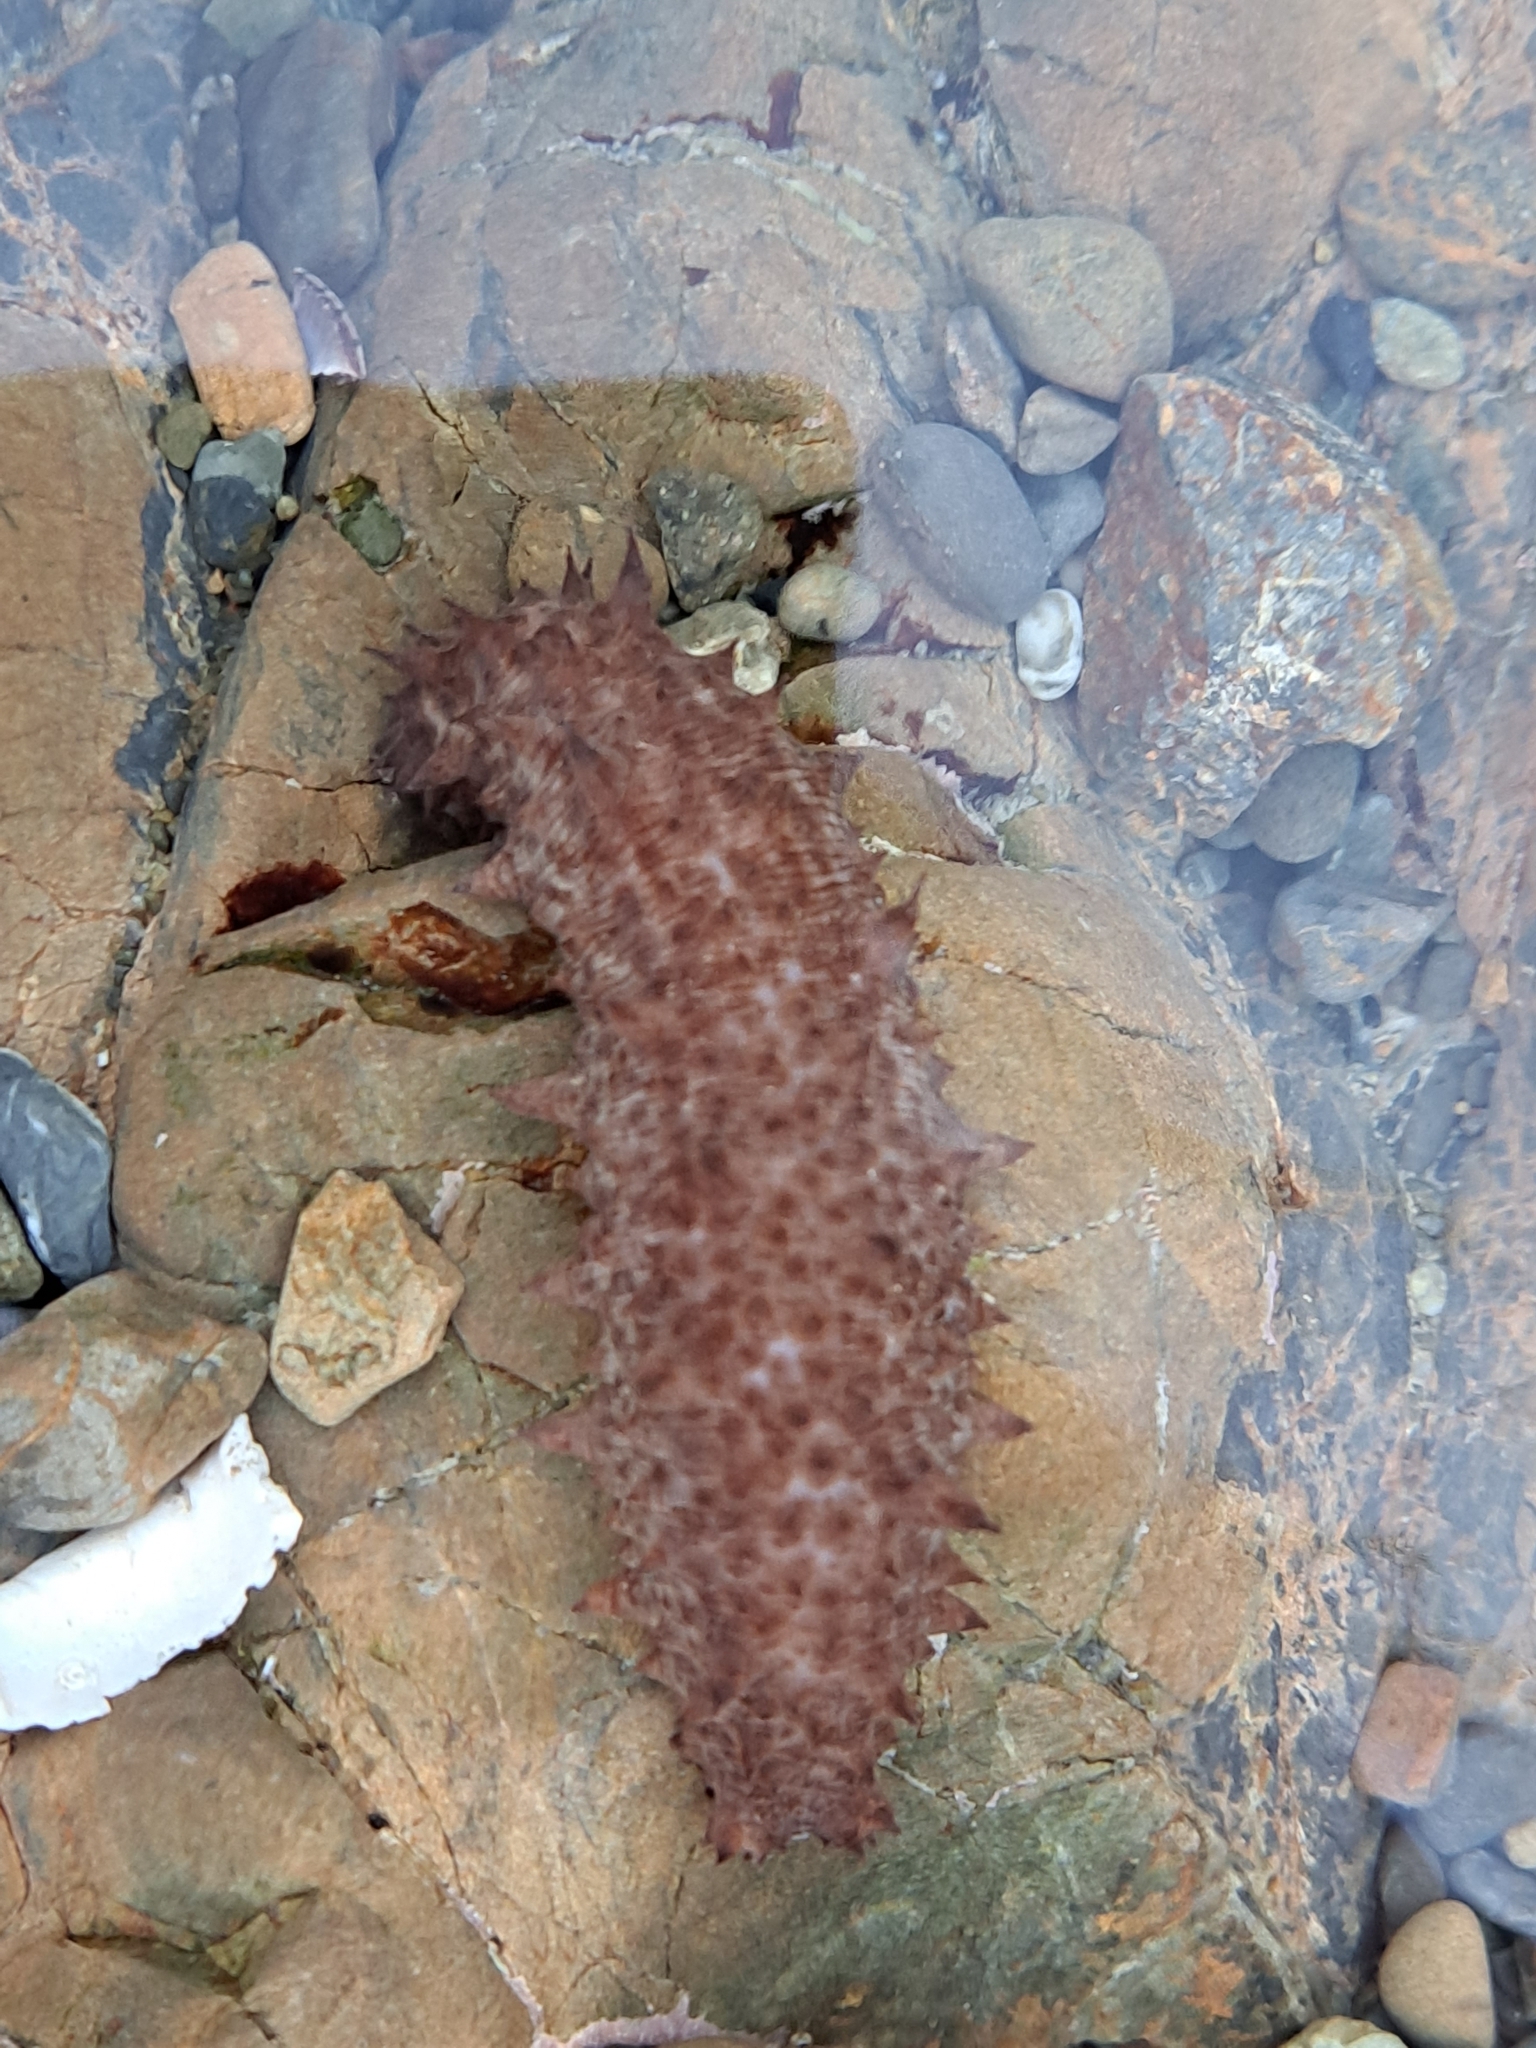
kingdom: Animalia
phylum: Echinodermata
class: Holothuroidea
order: Synallactida
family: Stichopodidae
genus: Australostichopus
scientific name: Australostichopus mollis
